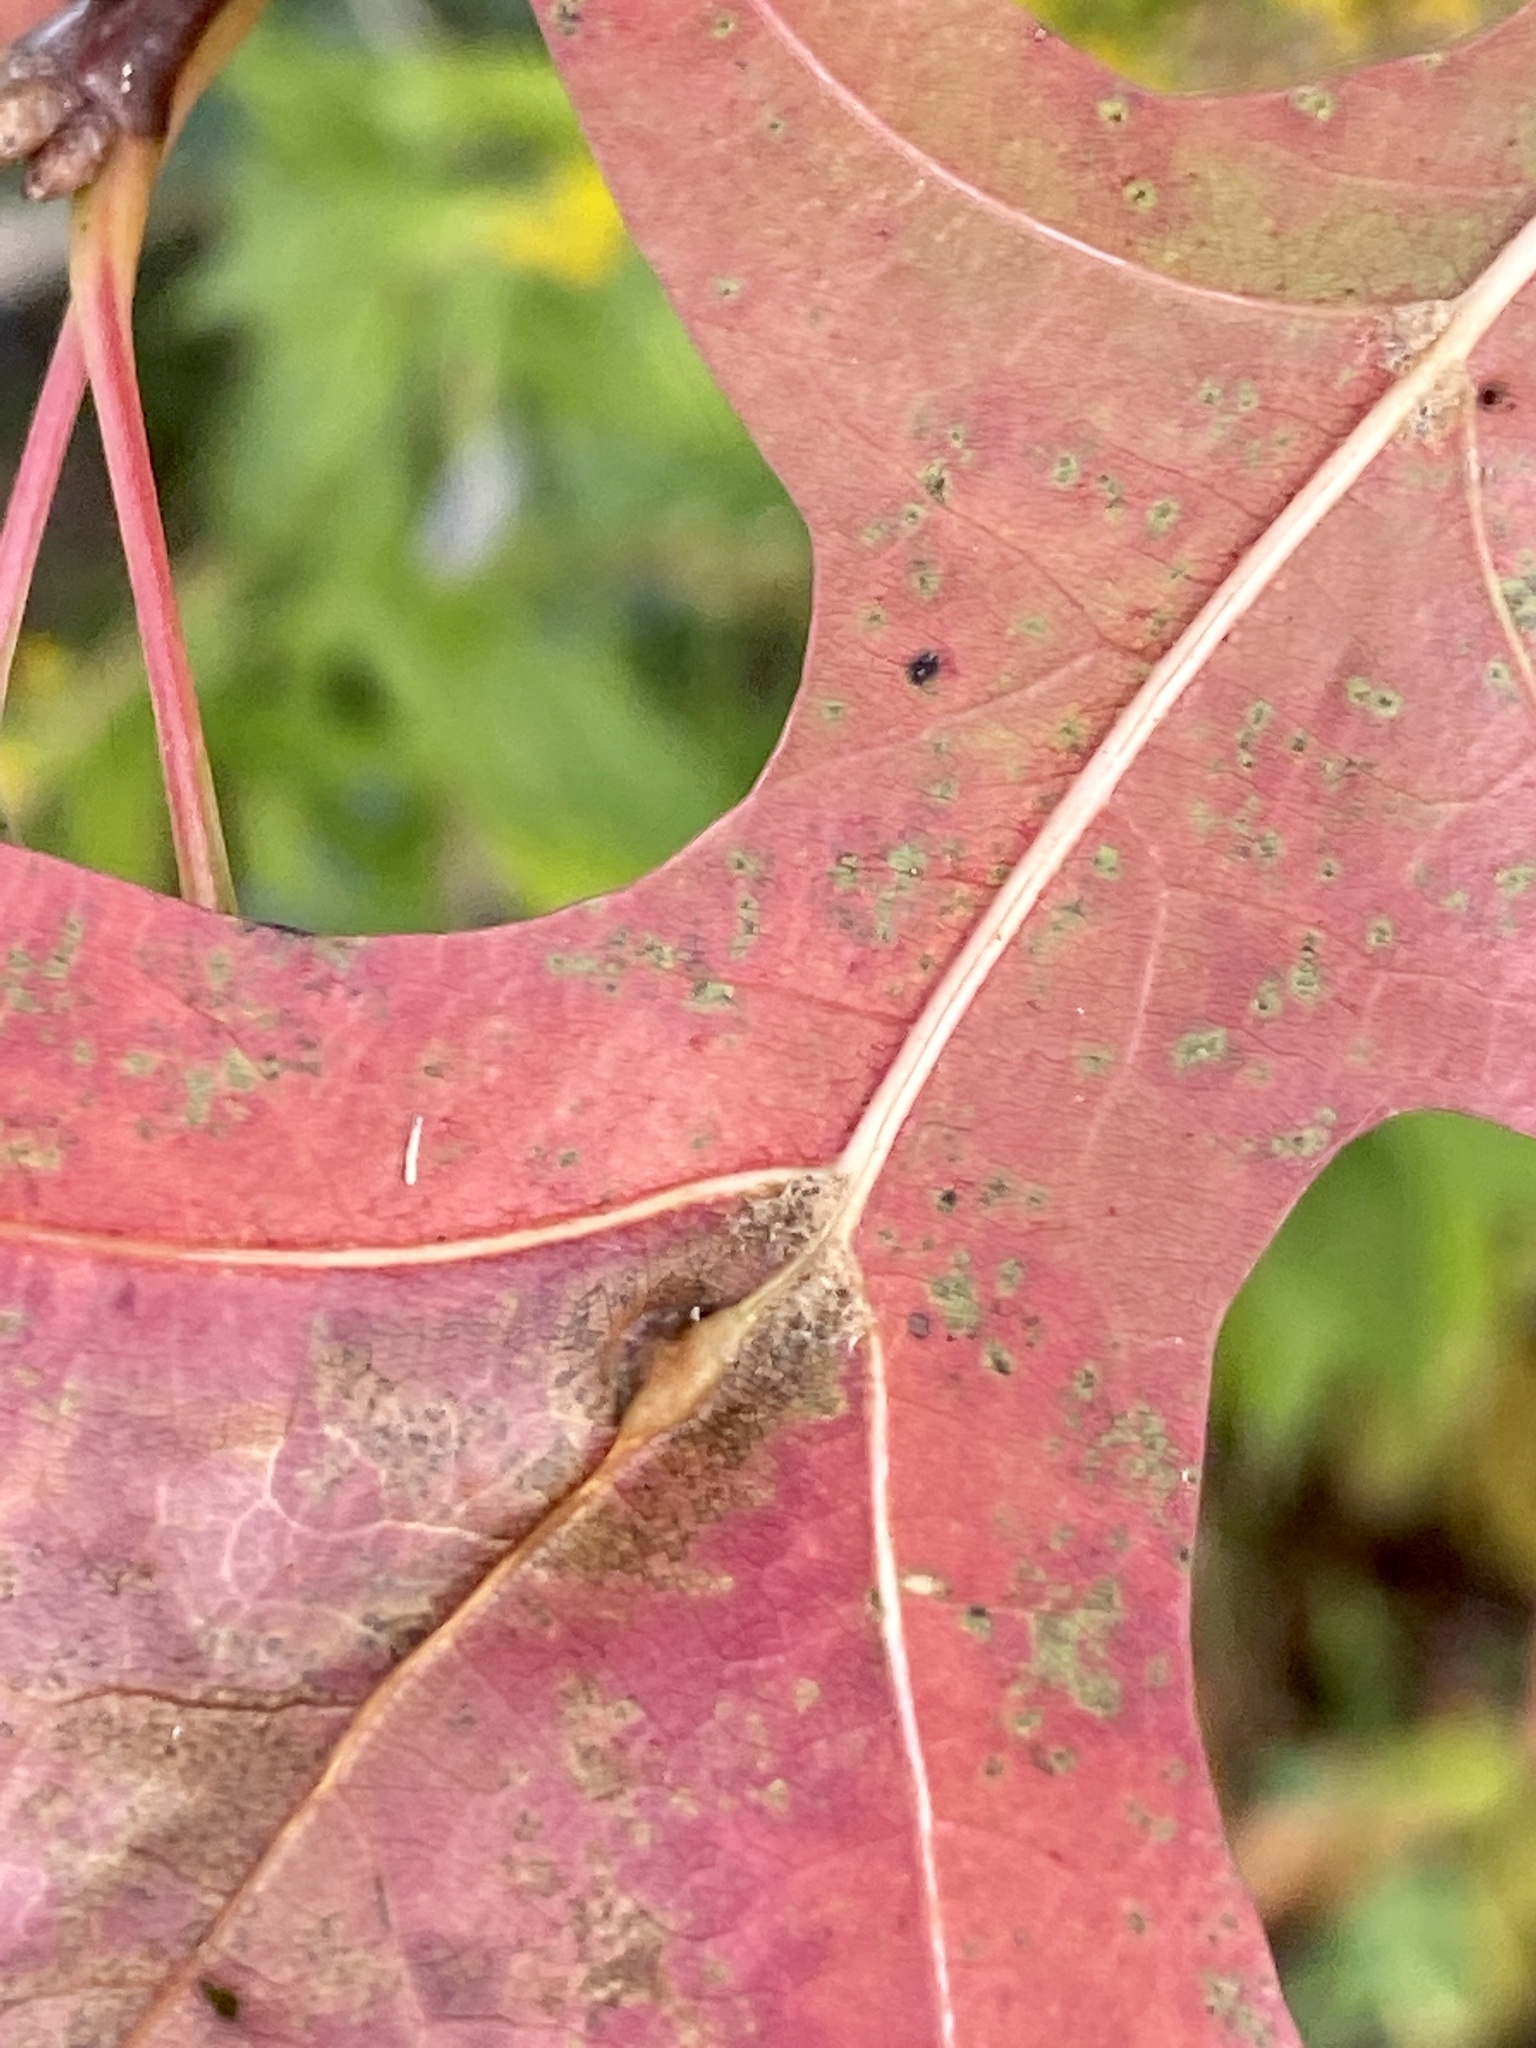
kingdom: Animalia
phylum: Arthropoda
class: Insecta
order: Diptera
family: Cecidomyiidae
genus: Polystepha
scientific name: Polystepha pilulae
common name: Oak leaf gall midge
